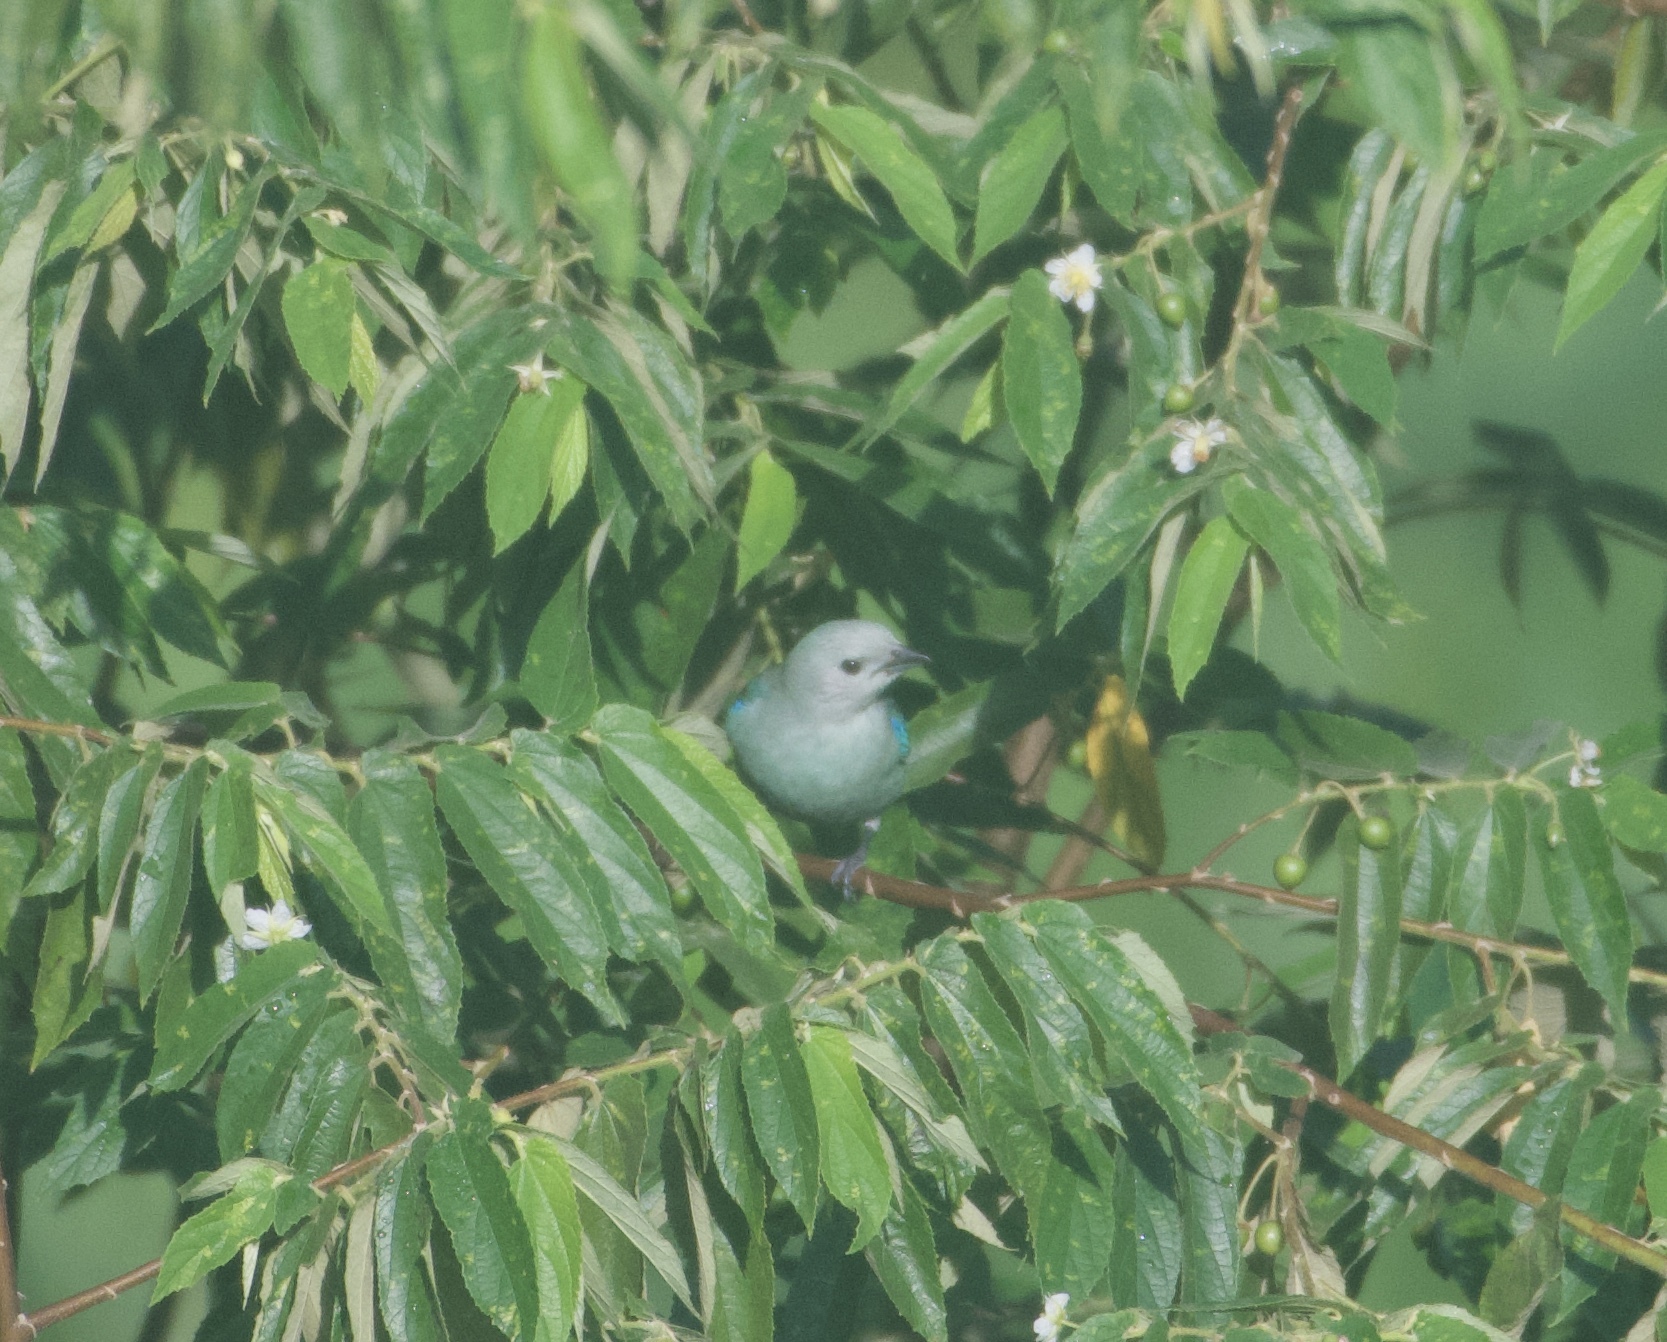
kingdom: Animalia
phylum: Chordata
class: Aves
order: Passeriformes
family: Thraupidae
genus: Thraupis
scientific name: Thraupis episcopus
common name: Blue-grey tanager
